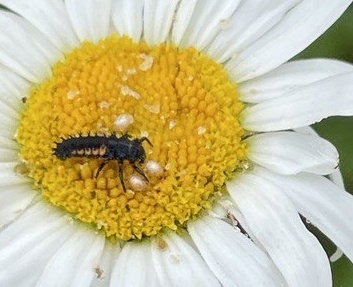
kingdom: Animalia
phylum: Arthropoda
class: Insecta
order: Coleoptera
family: Coccinellidae
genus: Harmonia
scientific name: Harmonia axyridis
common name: Harlequin ladybird
